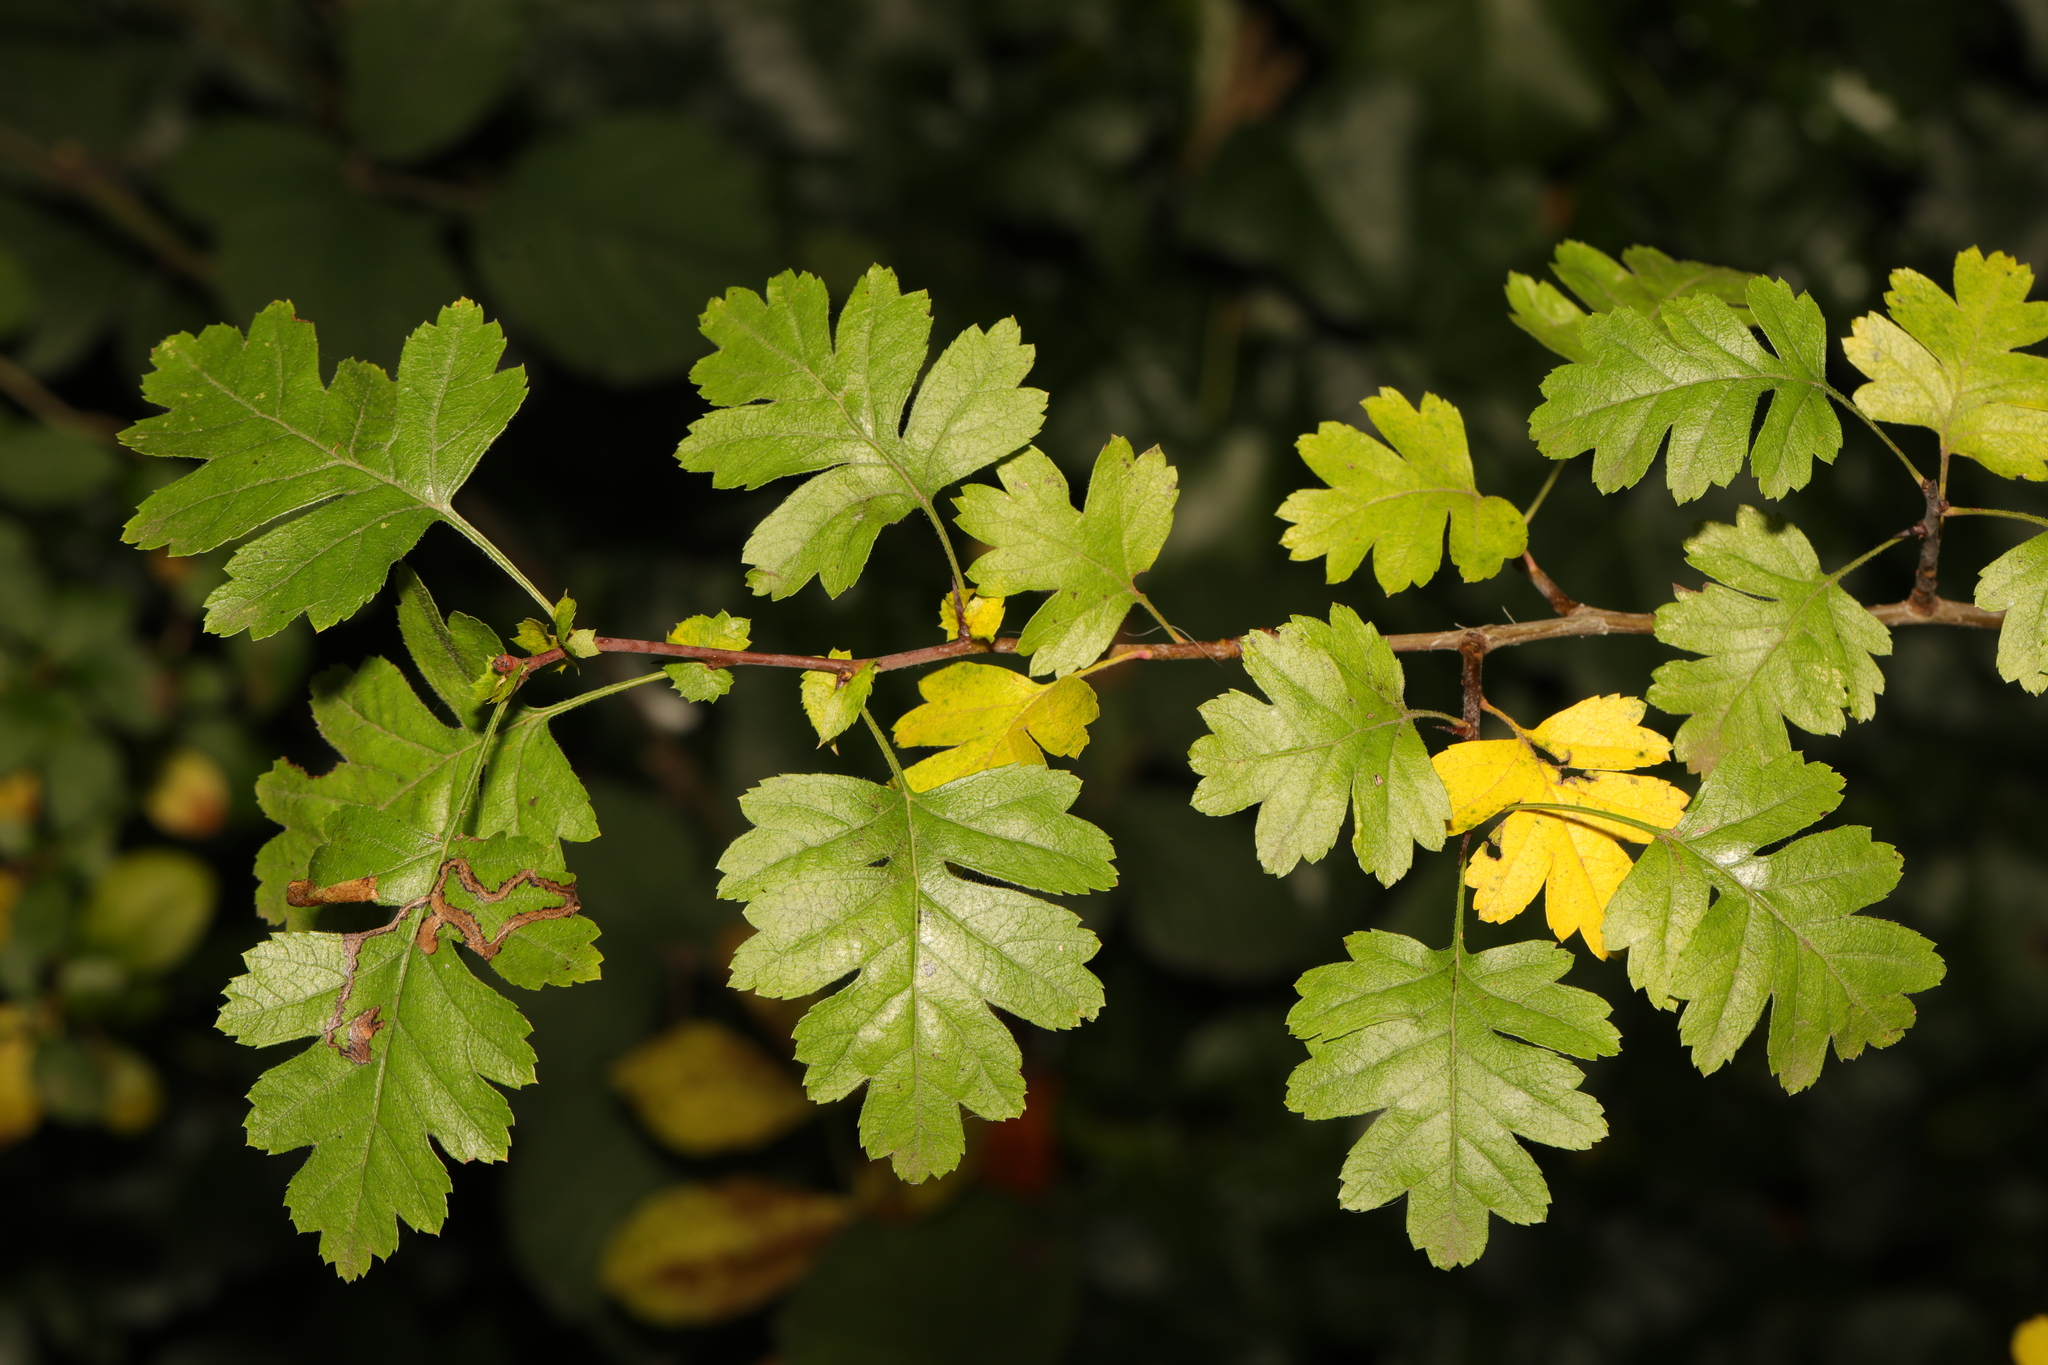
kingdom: Plantae
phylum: Tracheophyta
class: Magnoliopsida
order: Rosales
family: Rosaceae
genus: Crataegus
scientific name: Crataegus monogyna
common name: Hawthorn
